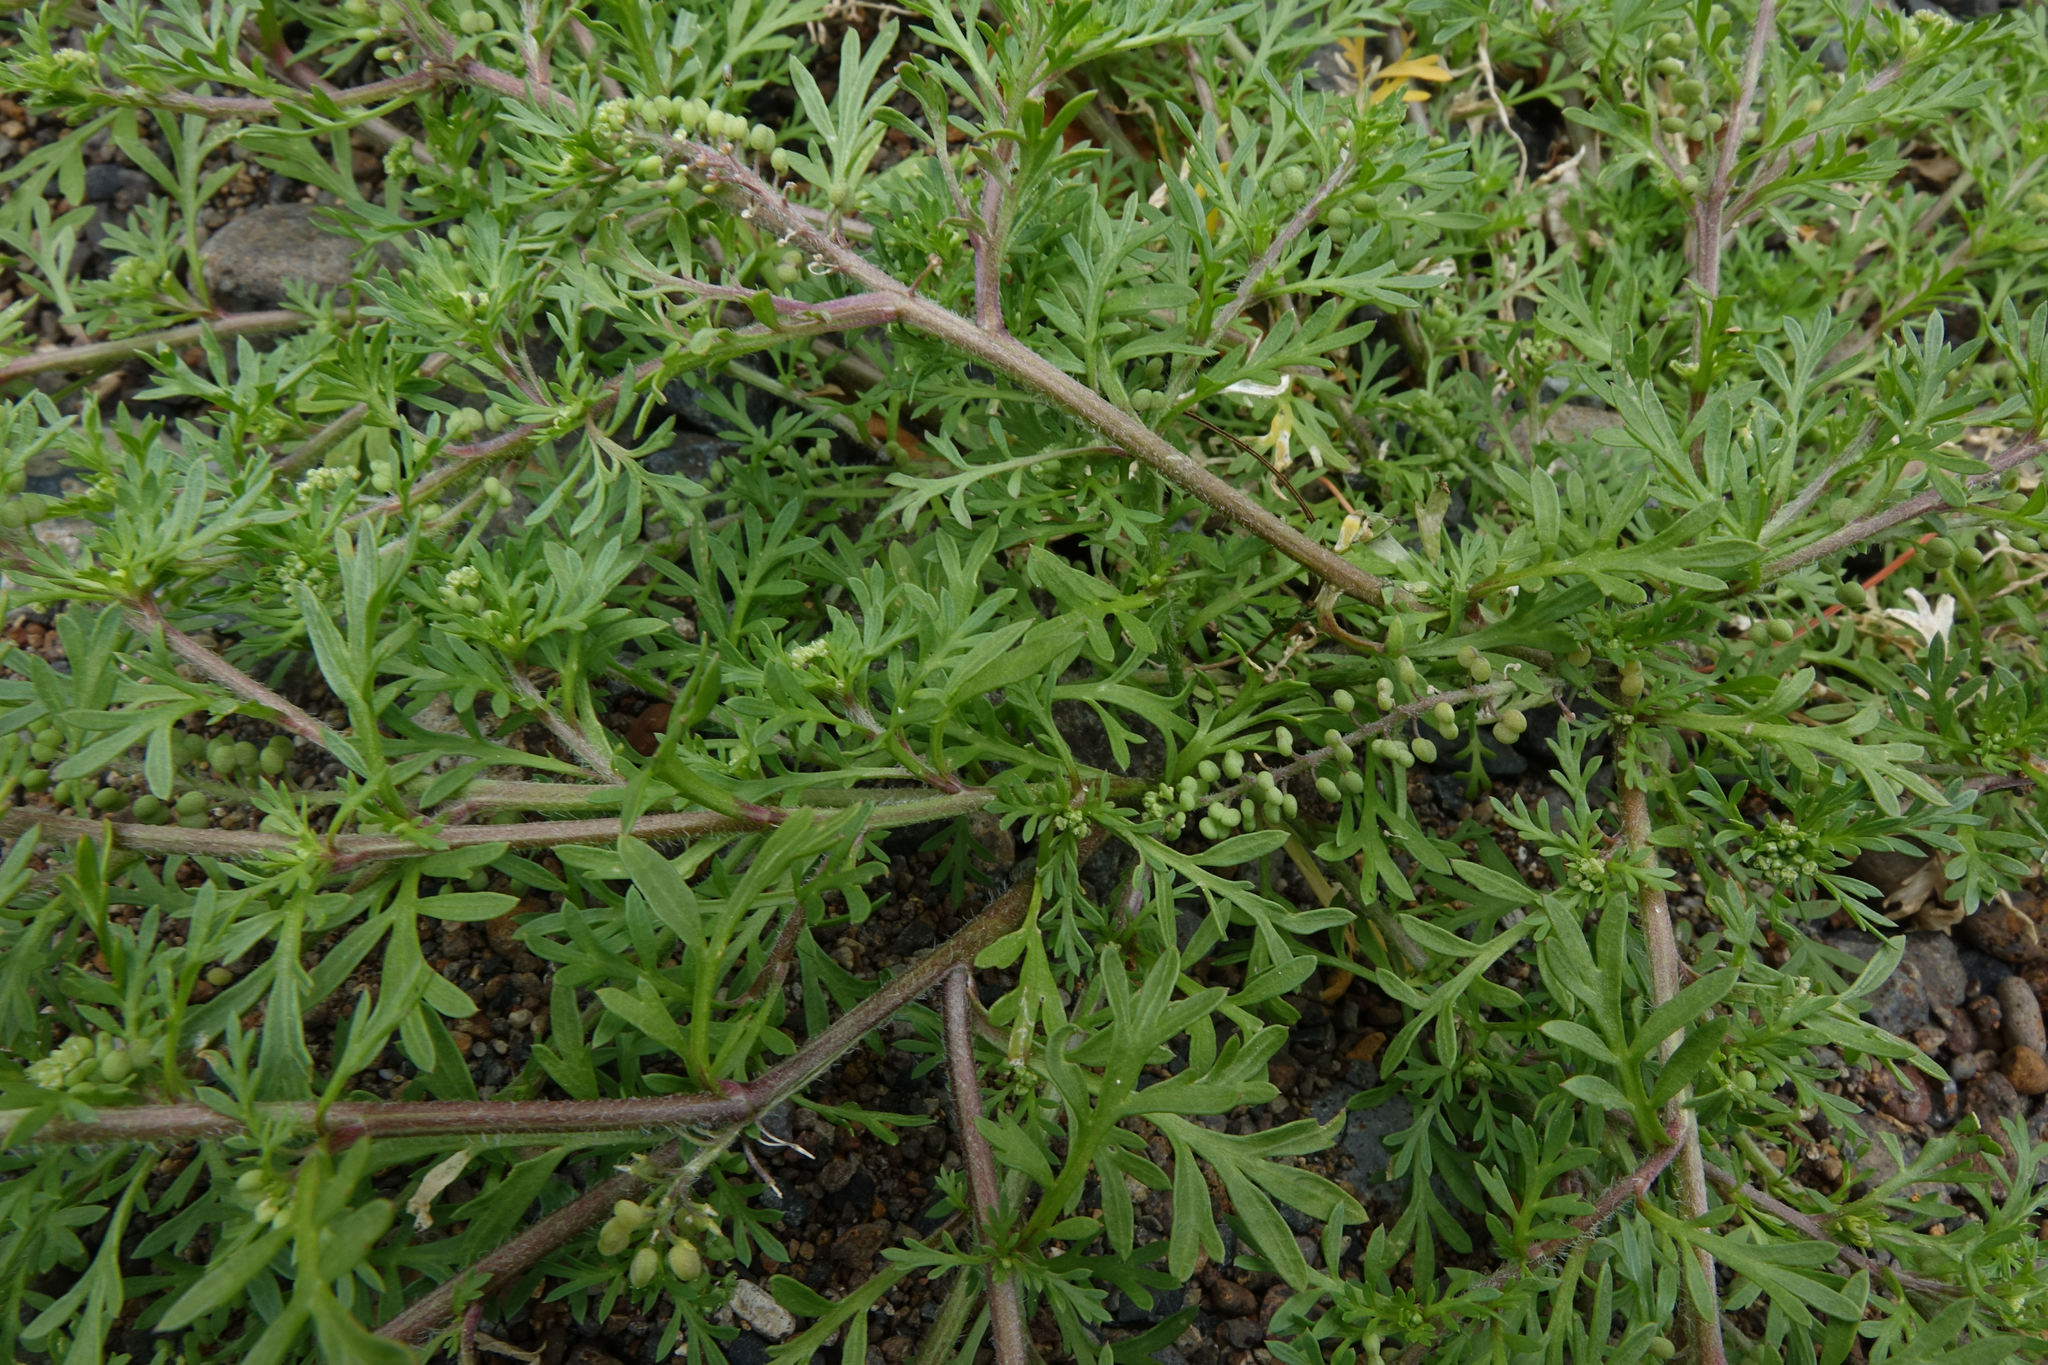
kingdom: Plantae
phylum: Tracheophyta
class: Magnoliopsida
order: Brassicales
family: Brassicaceae
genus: Lepidium
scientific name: Lepidium didymum
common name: Lesser swinecress
